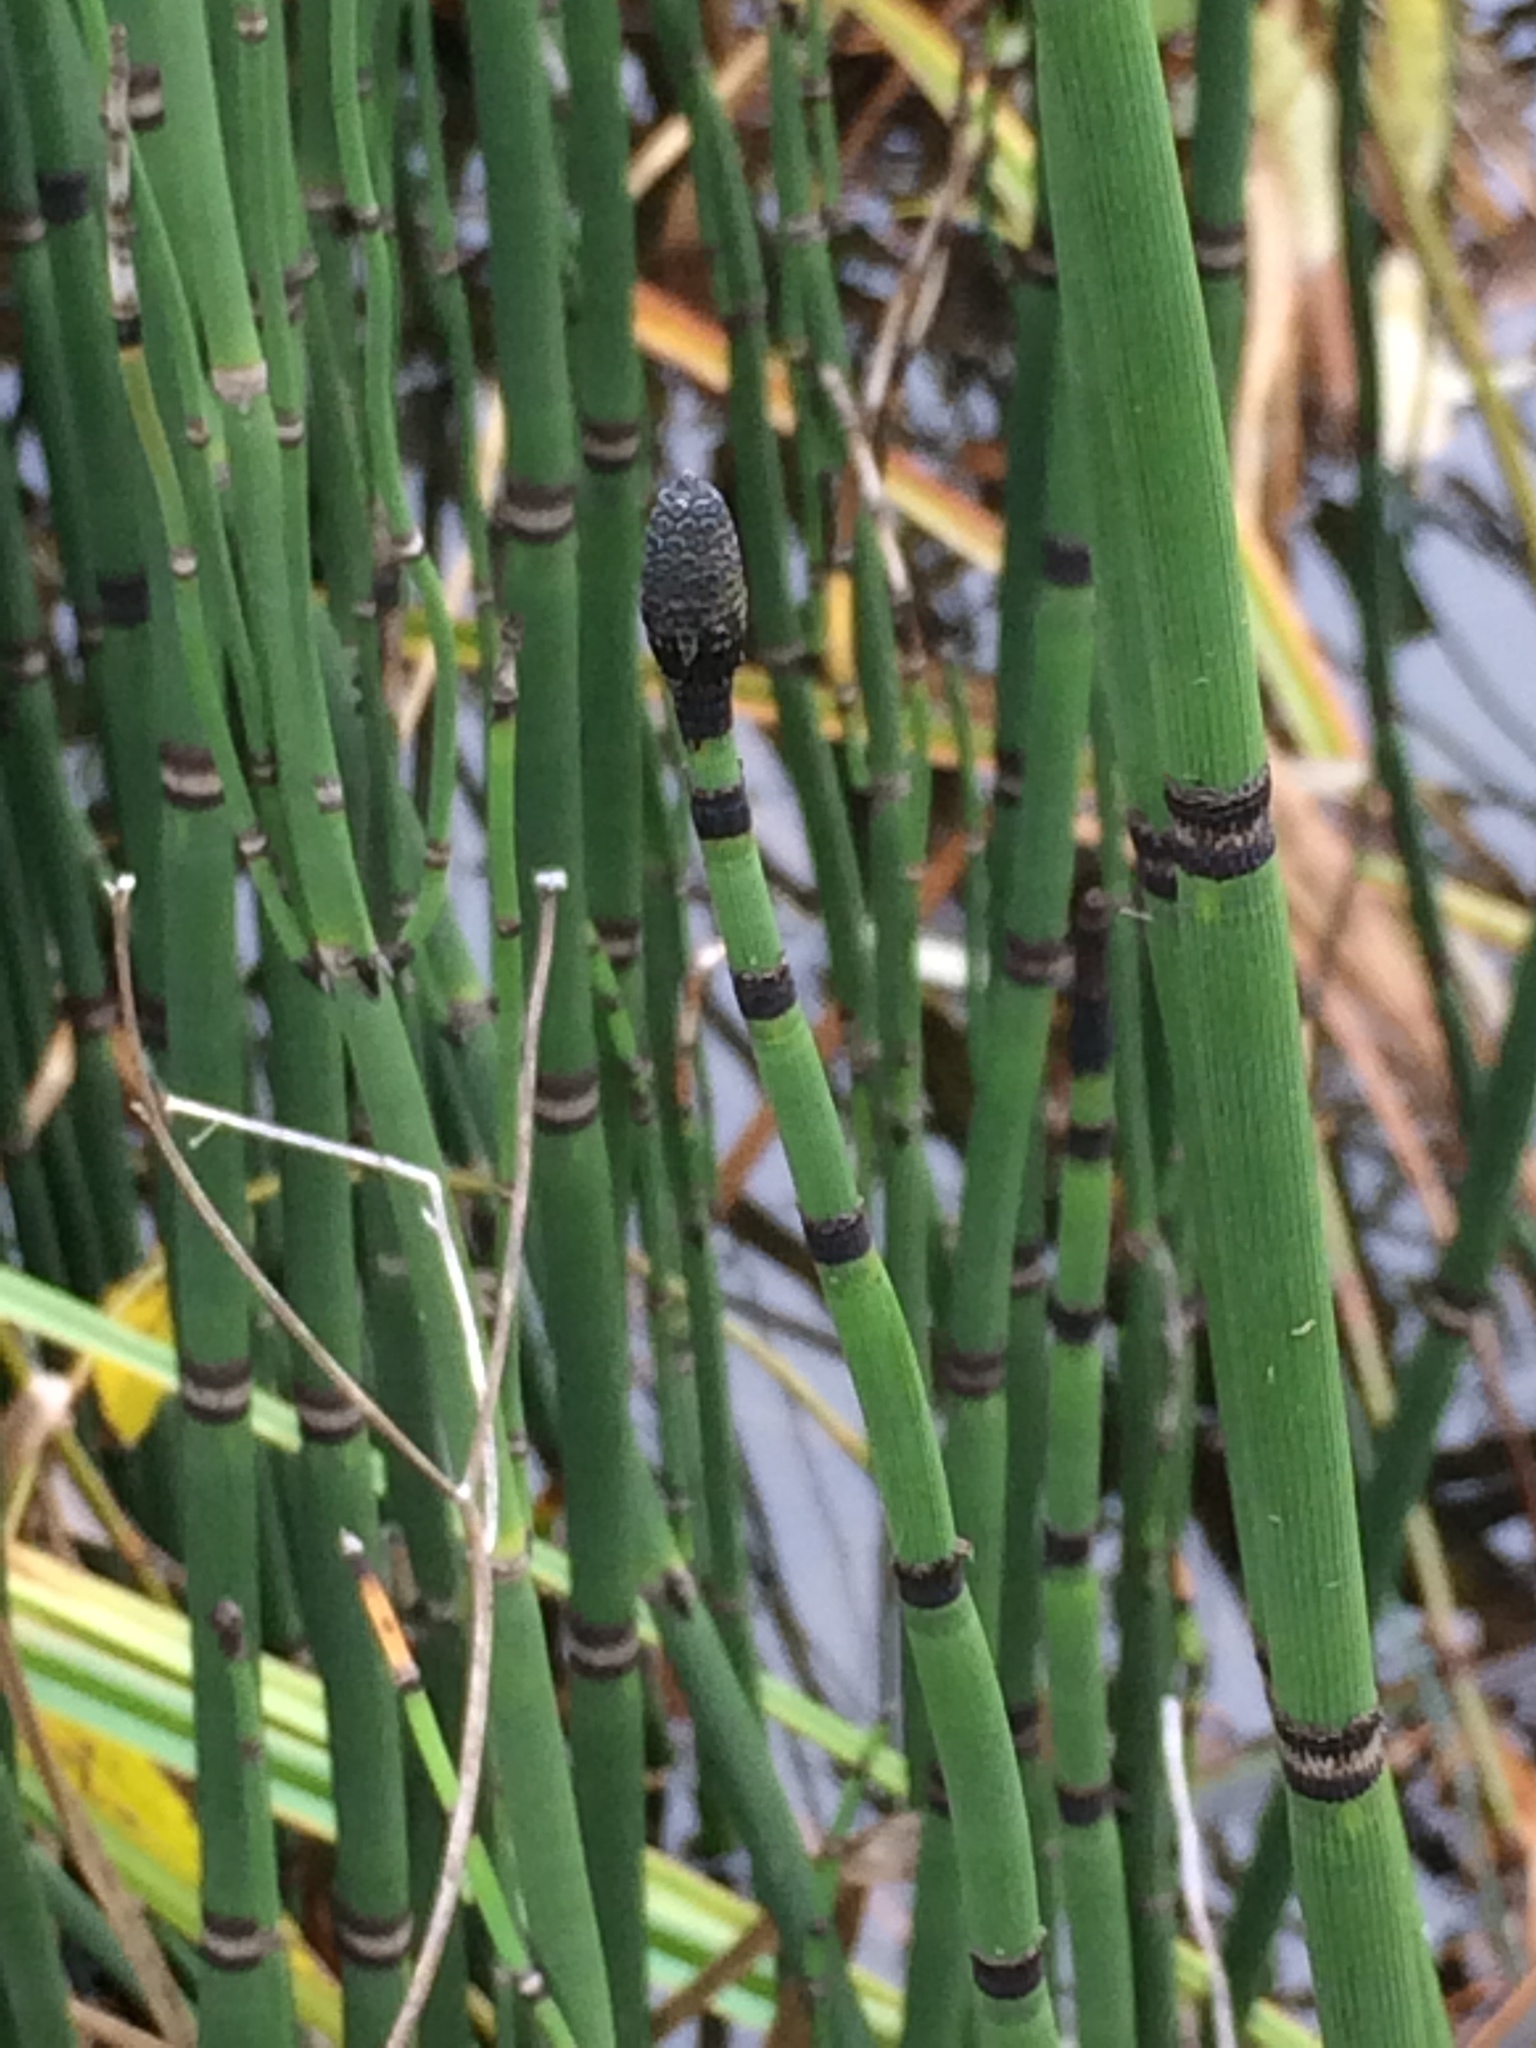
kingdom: Plantae
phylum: Tracheophyta
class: Polypodiopsida
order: Equisetales
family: Equisetaceae
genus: Equisetum
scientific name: Equisetum hyemale
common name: Rough horsetail
